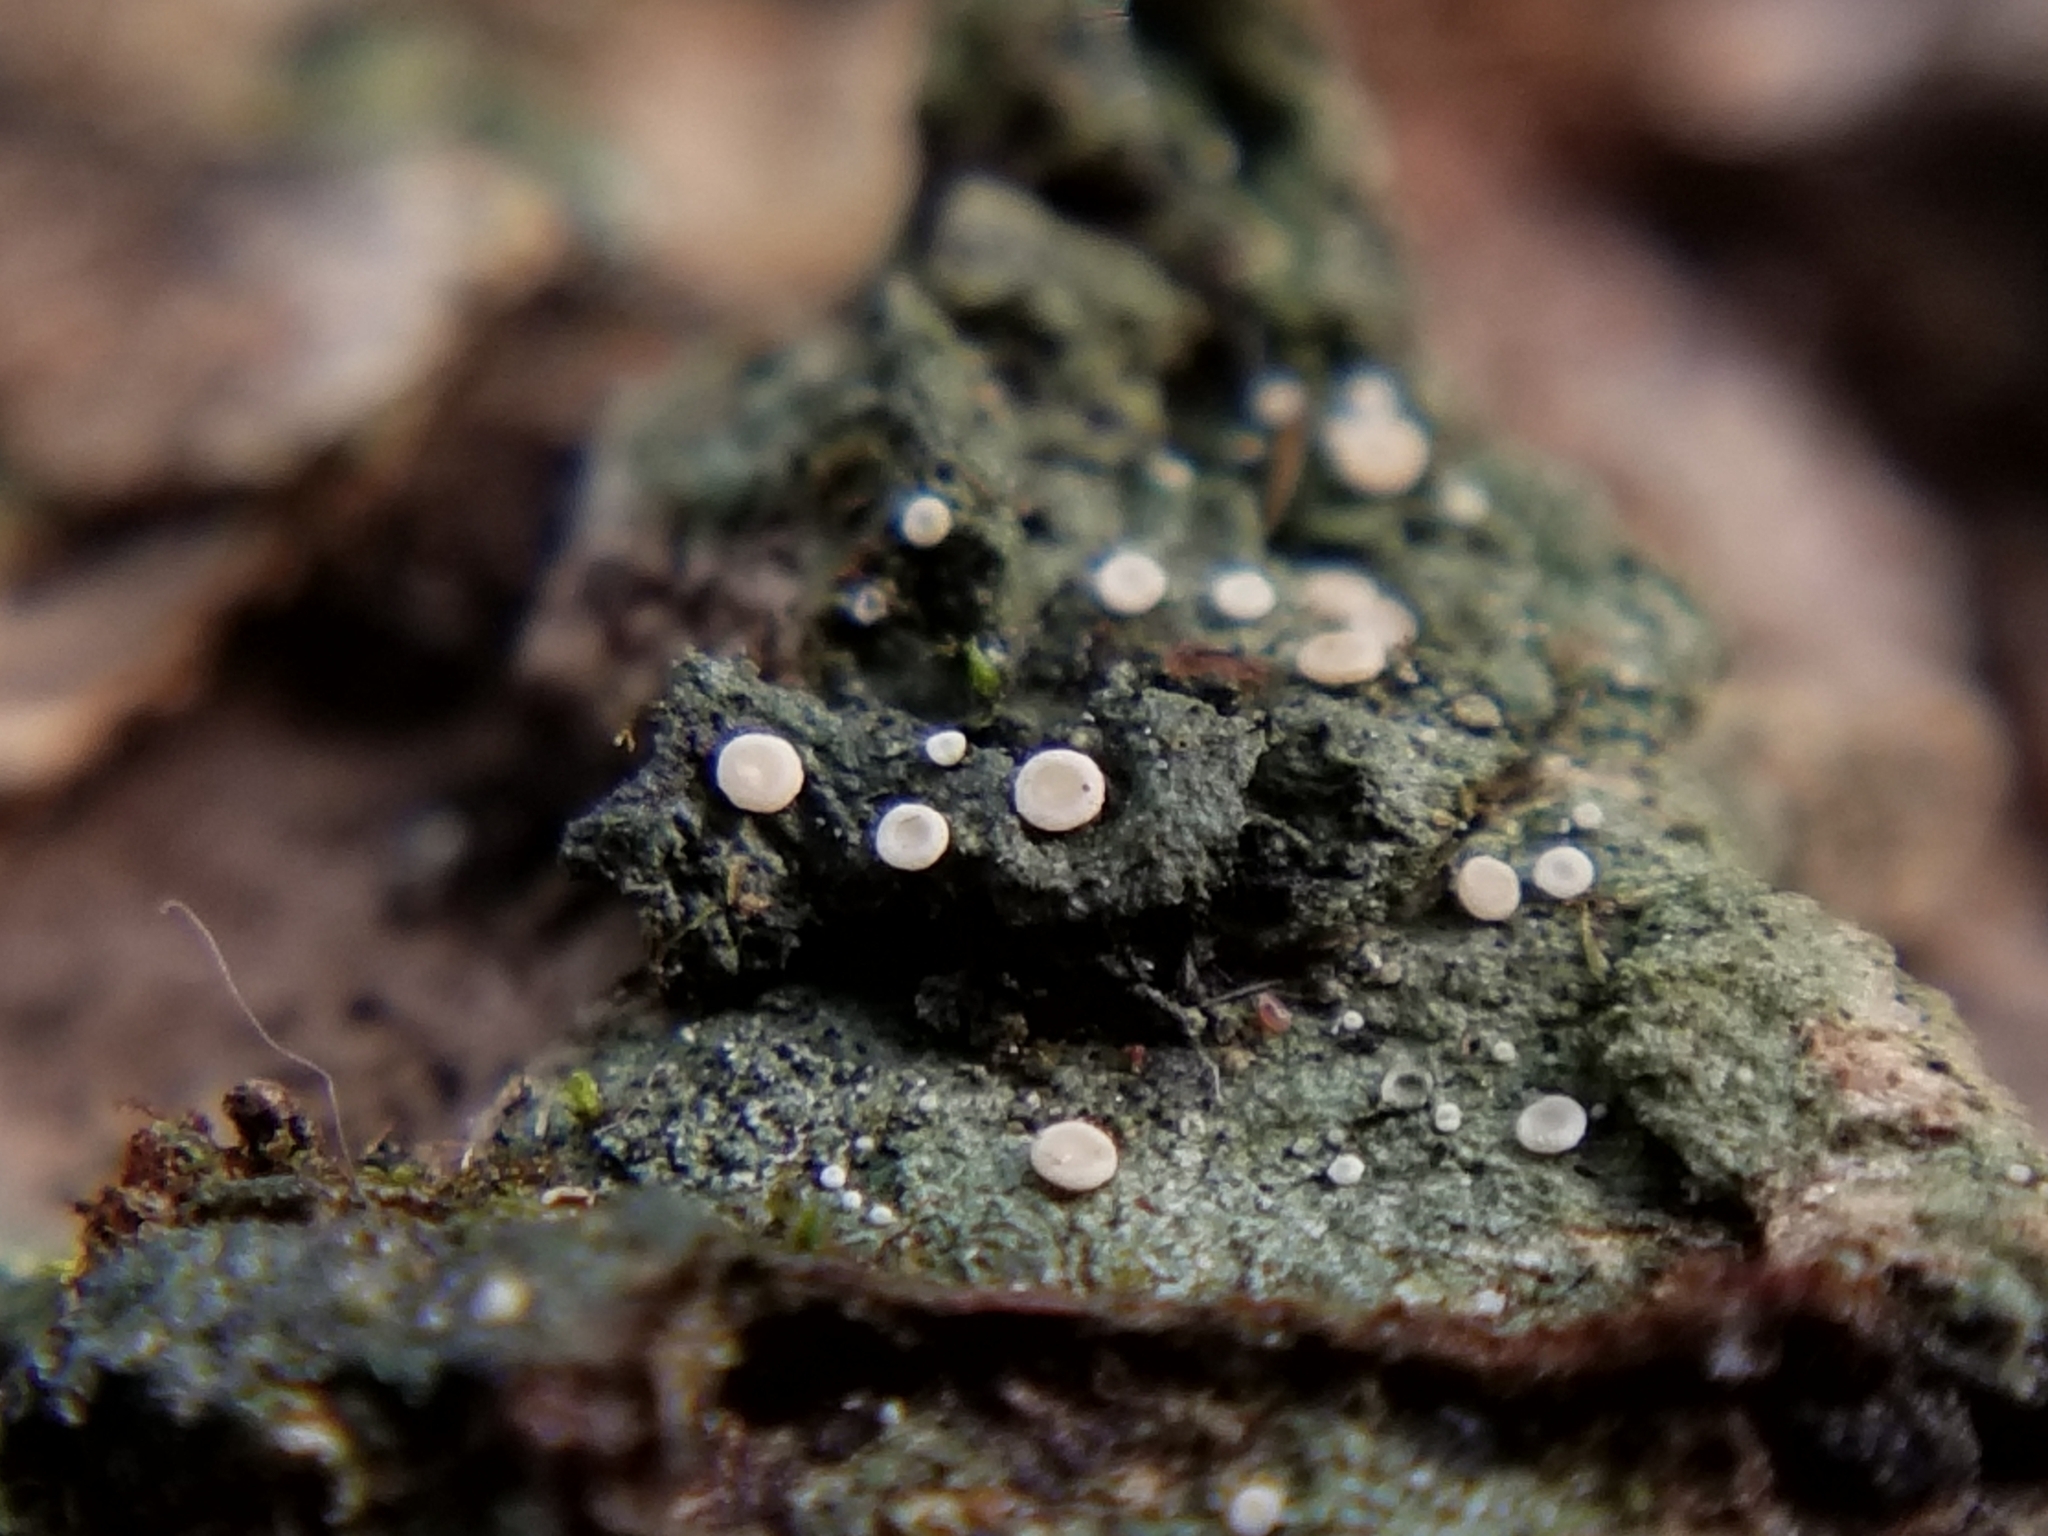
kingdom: Fungi
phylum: Ascomycota
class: Lecanoromycetes
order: Pertusariales
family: Icmadophilaceae
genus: Icmadophila
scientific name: Icmadophila ericetorum
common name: Candy lichen
